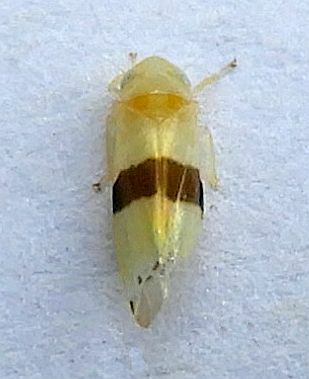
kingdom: Animalia
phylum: Arthropoda
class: Insecta
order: Hemiptera
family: Cicadellidae
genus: Empoa
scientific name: Empoa rubricola
